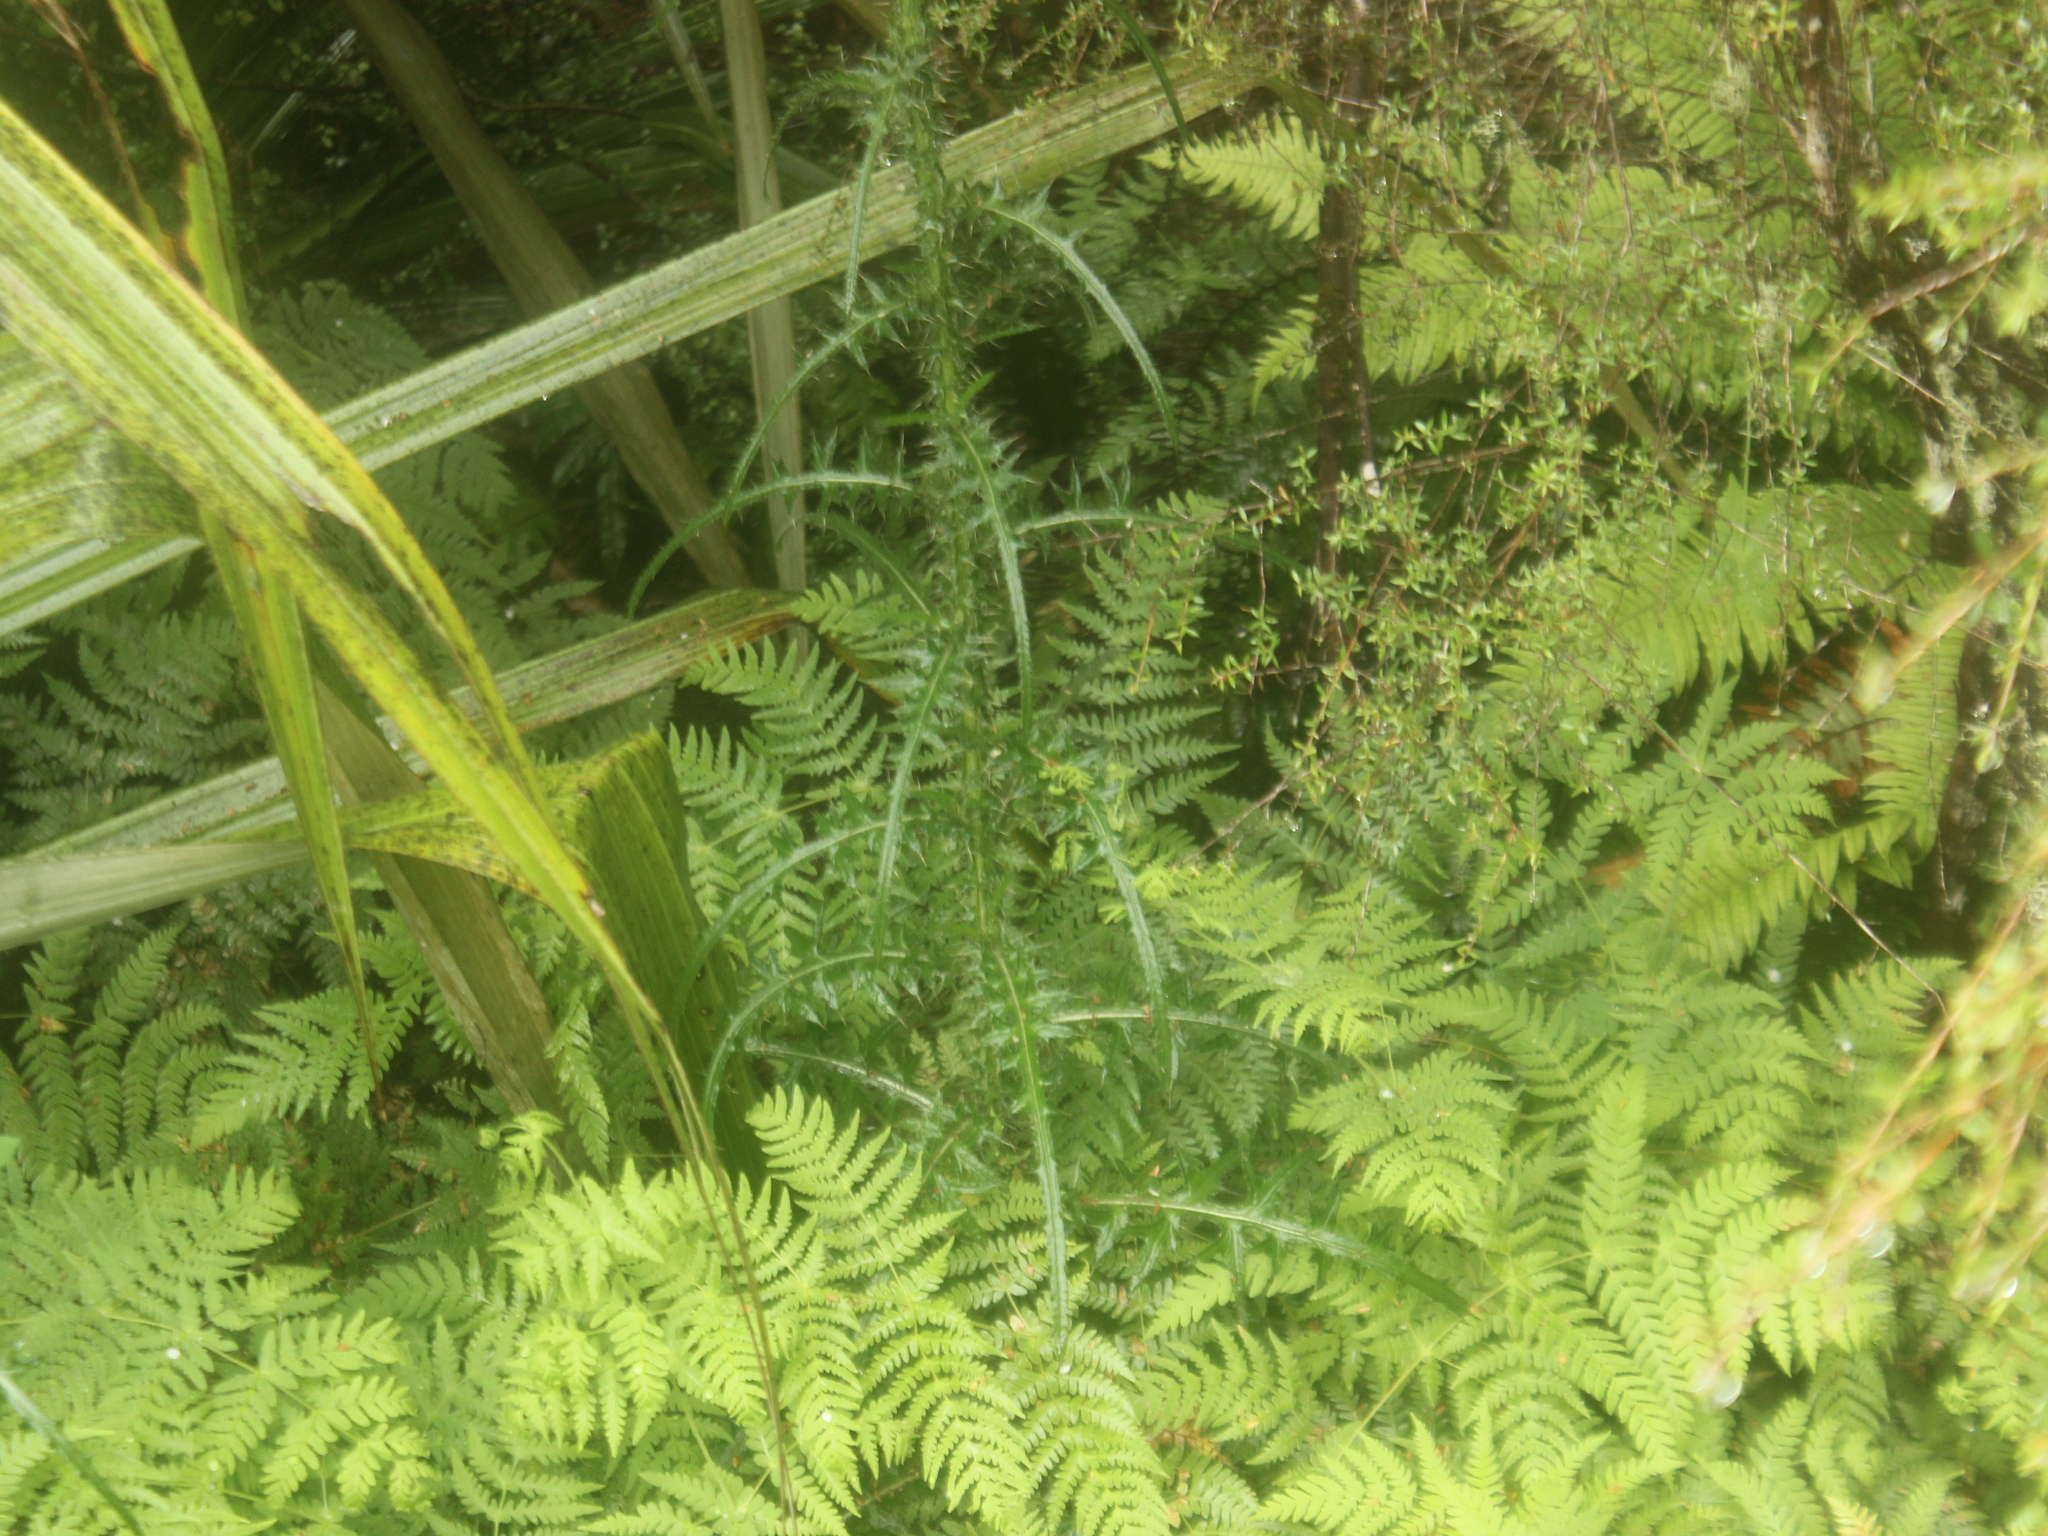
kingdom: Plantae
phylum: Tracheophyta
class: Magnoliopsida
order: Asterales
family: Asteraceae
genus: Cirsium
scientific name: Cirsium palustre
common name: Marsh thistle
